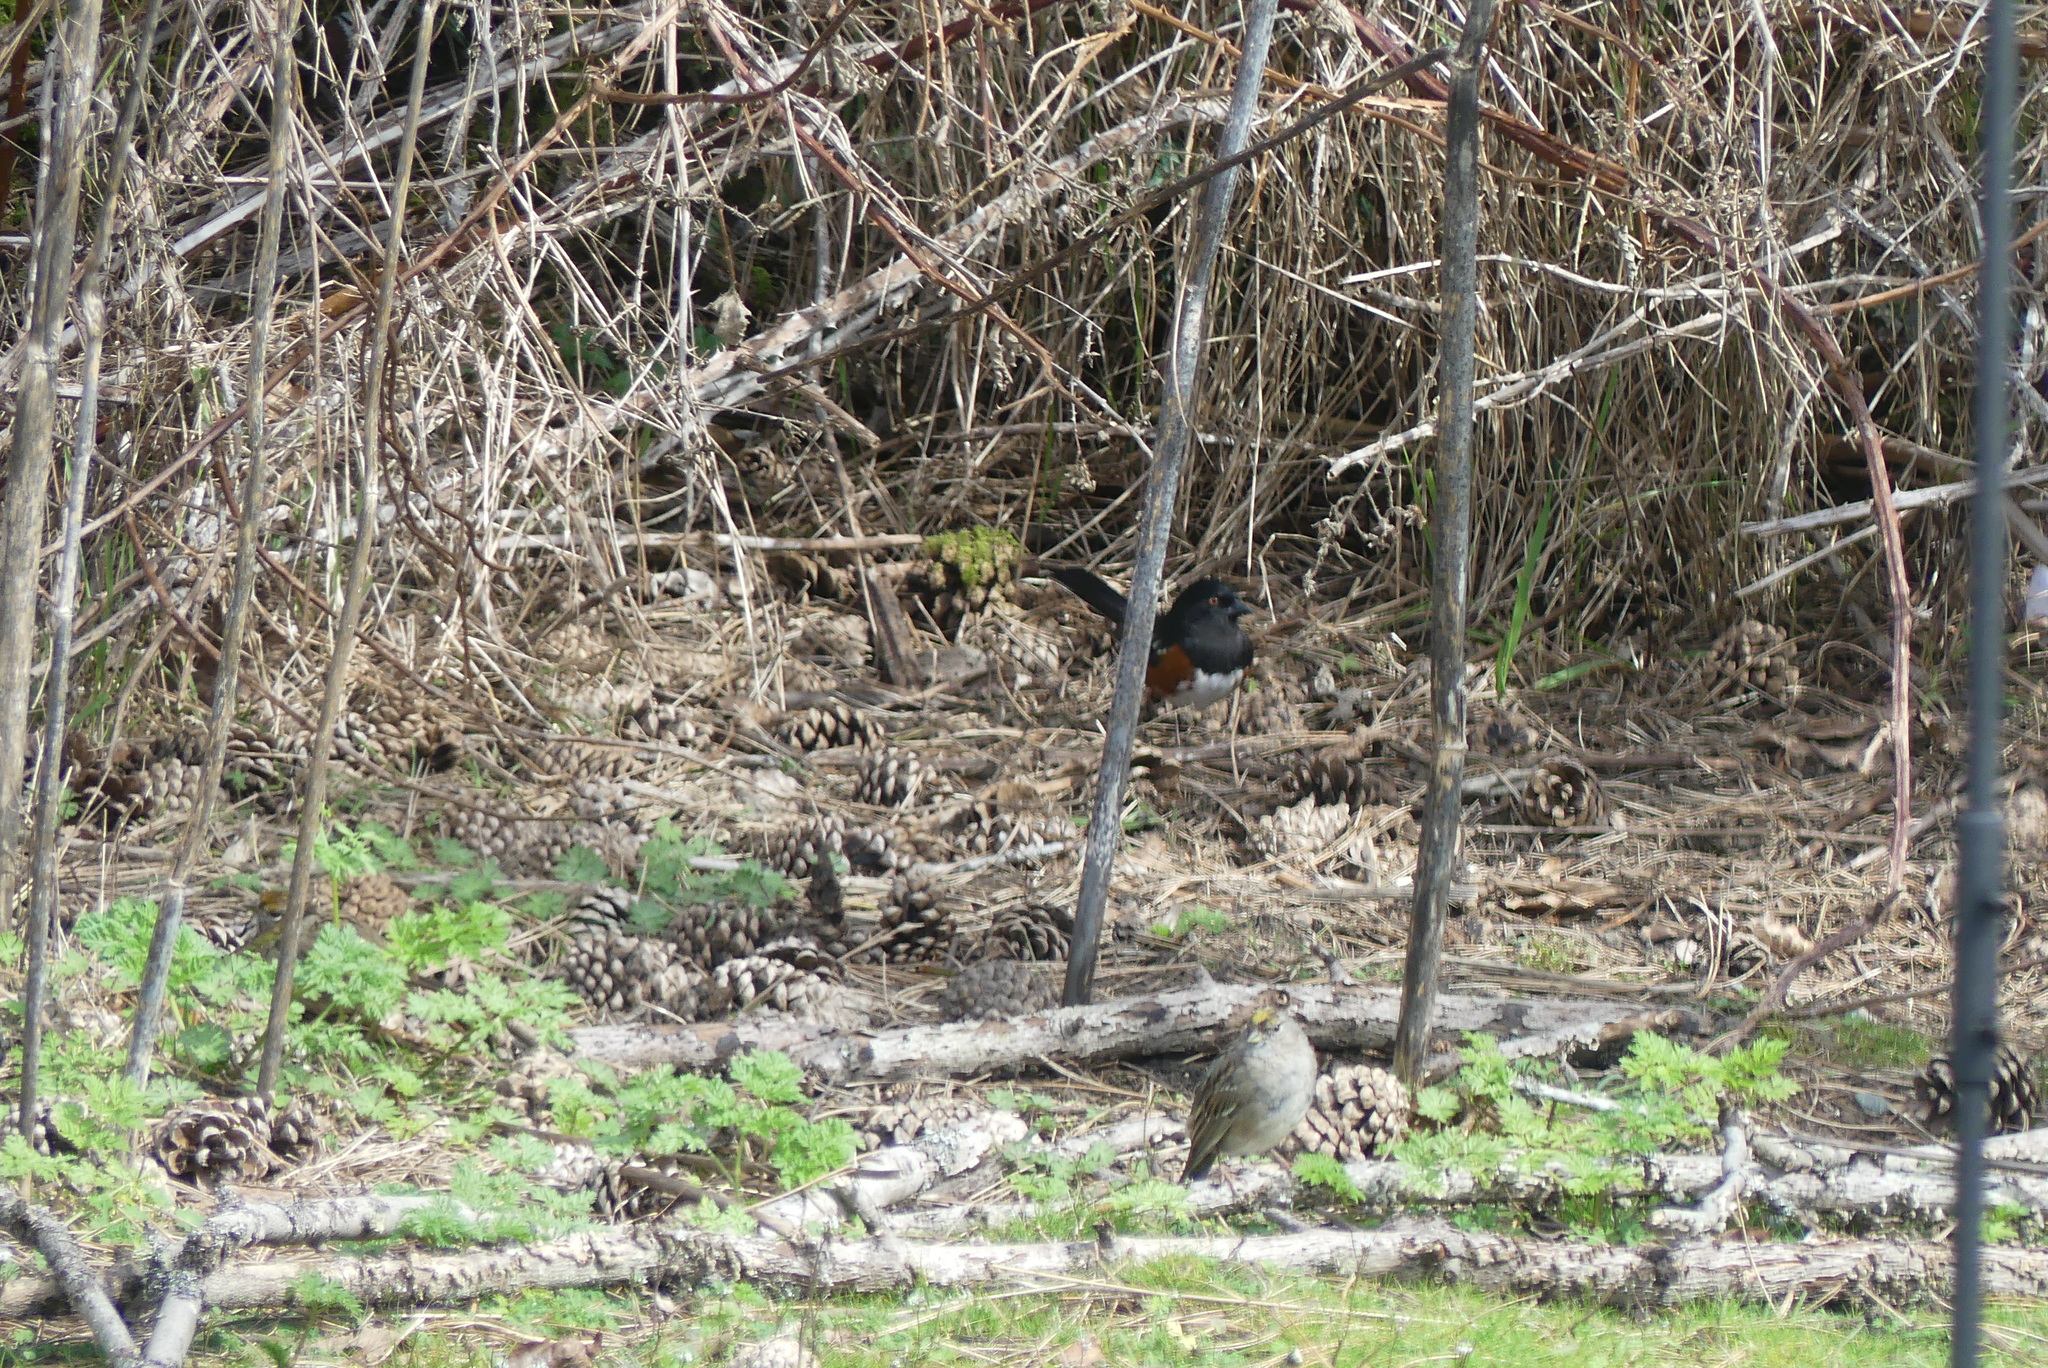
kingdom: Animalia
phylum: Chordata
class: Aves
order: Passeriformes
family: Passerellidae
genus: Pipilo
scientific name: Pipilo maculatus
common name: Spotted towhee
